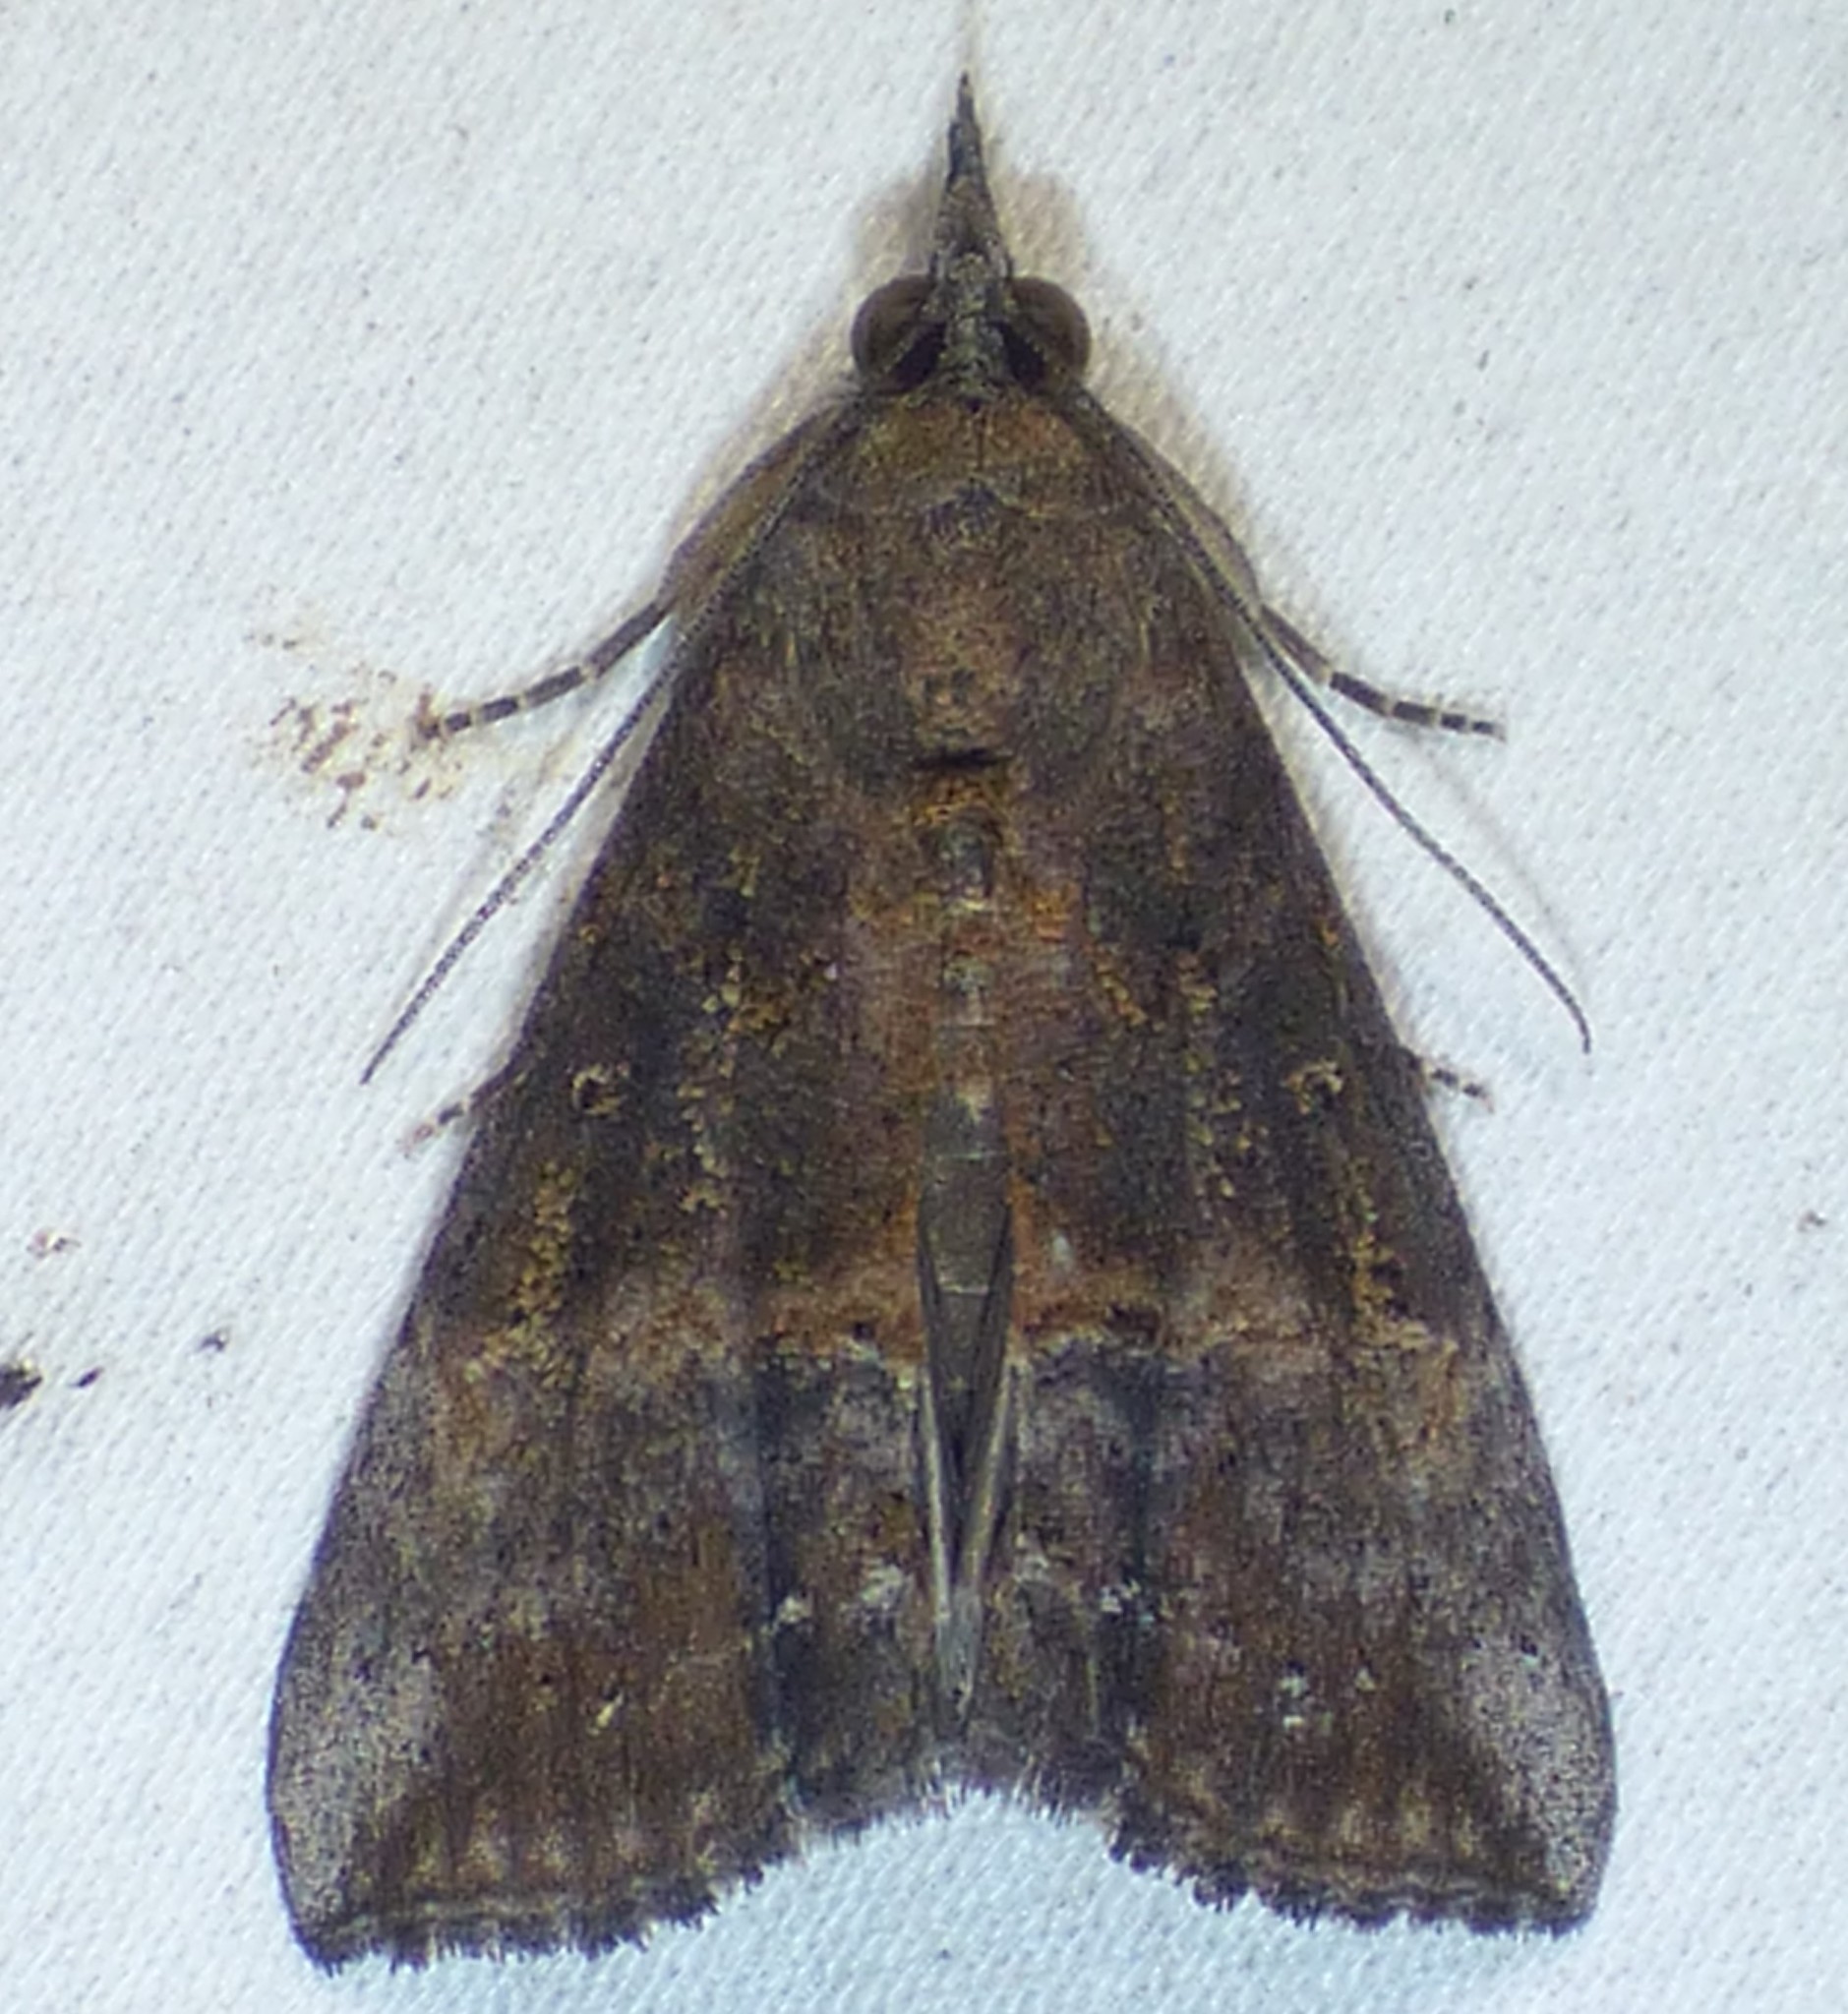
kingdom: Animalia
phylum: Arthropoda
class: Insecta
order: Lepidoptera
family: Erebidae
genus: Hypena
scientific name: Hypena scabra
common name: Green cloverworm
